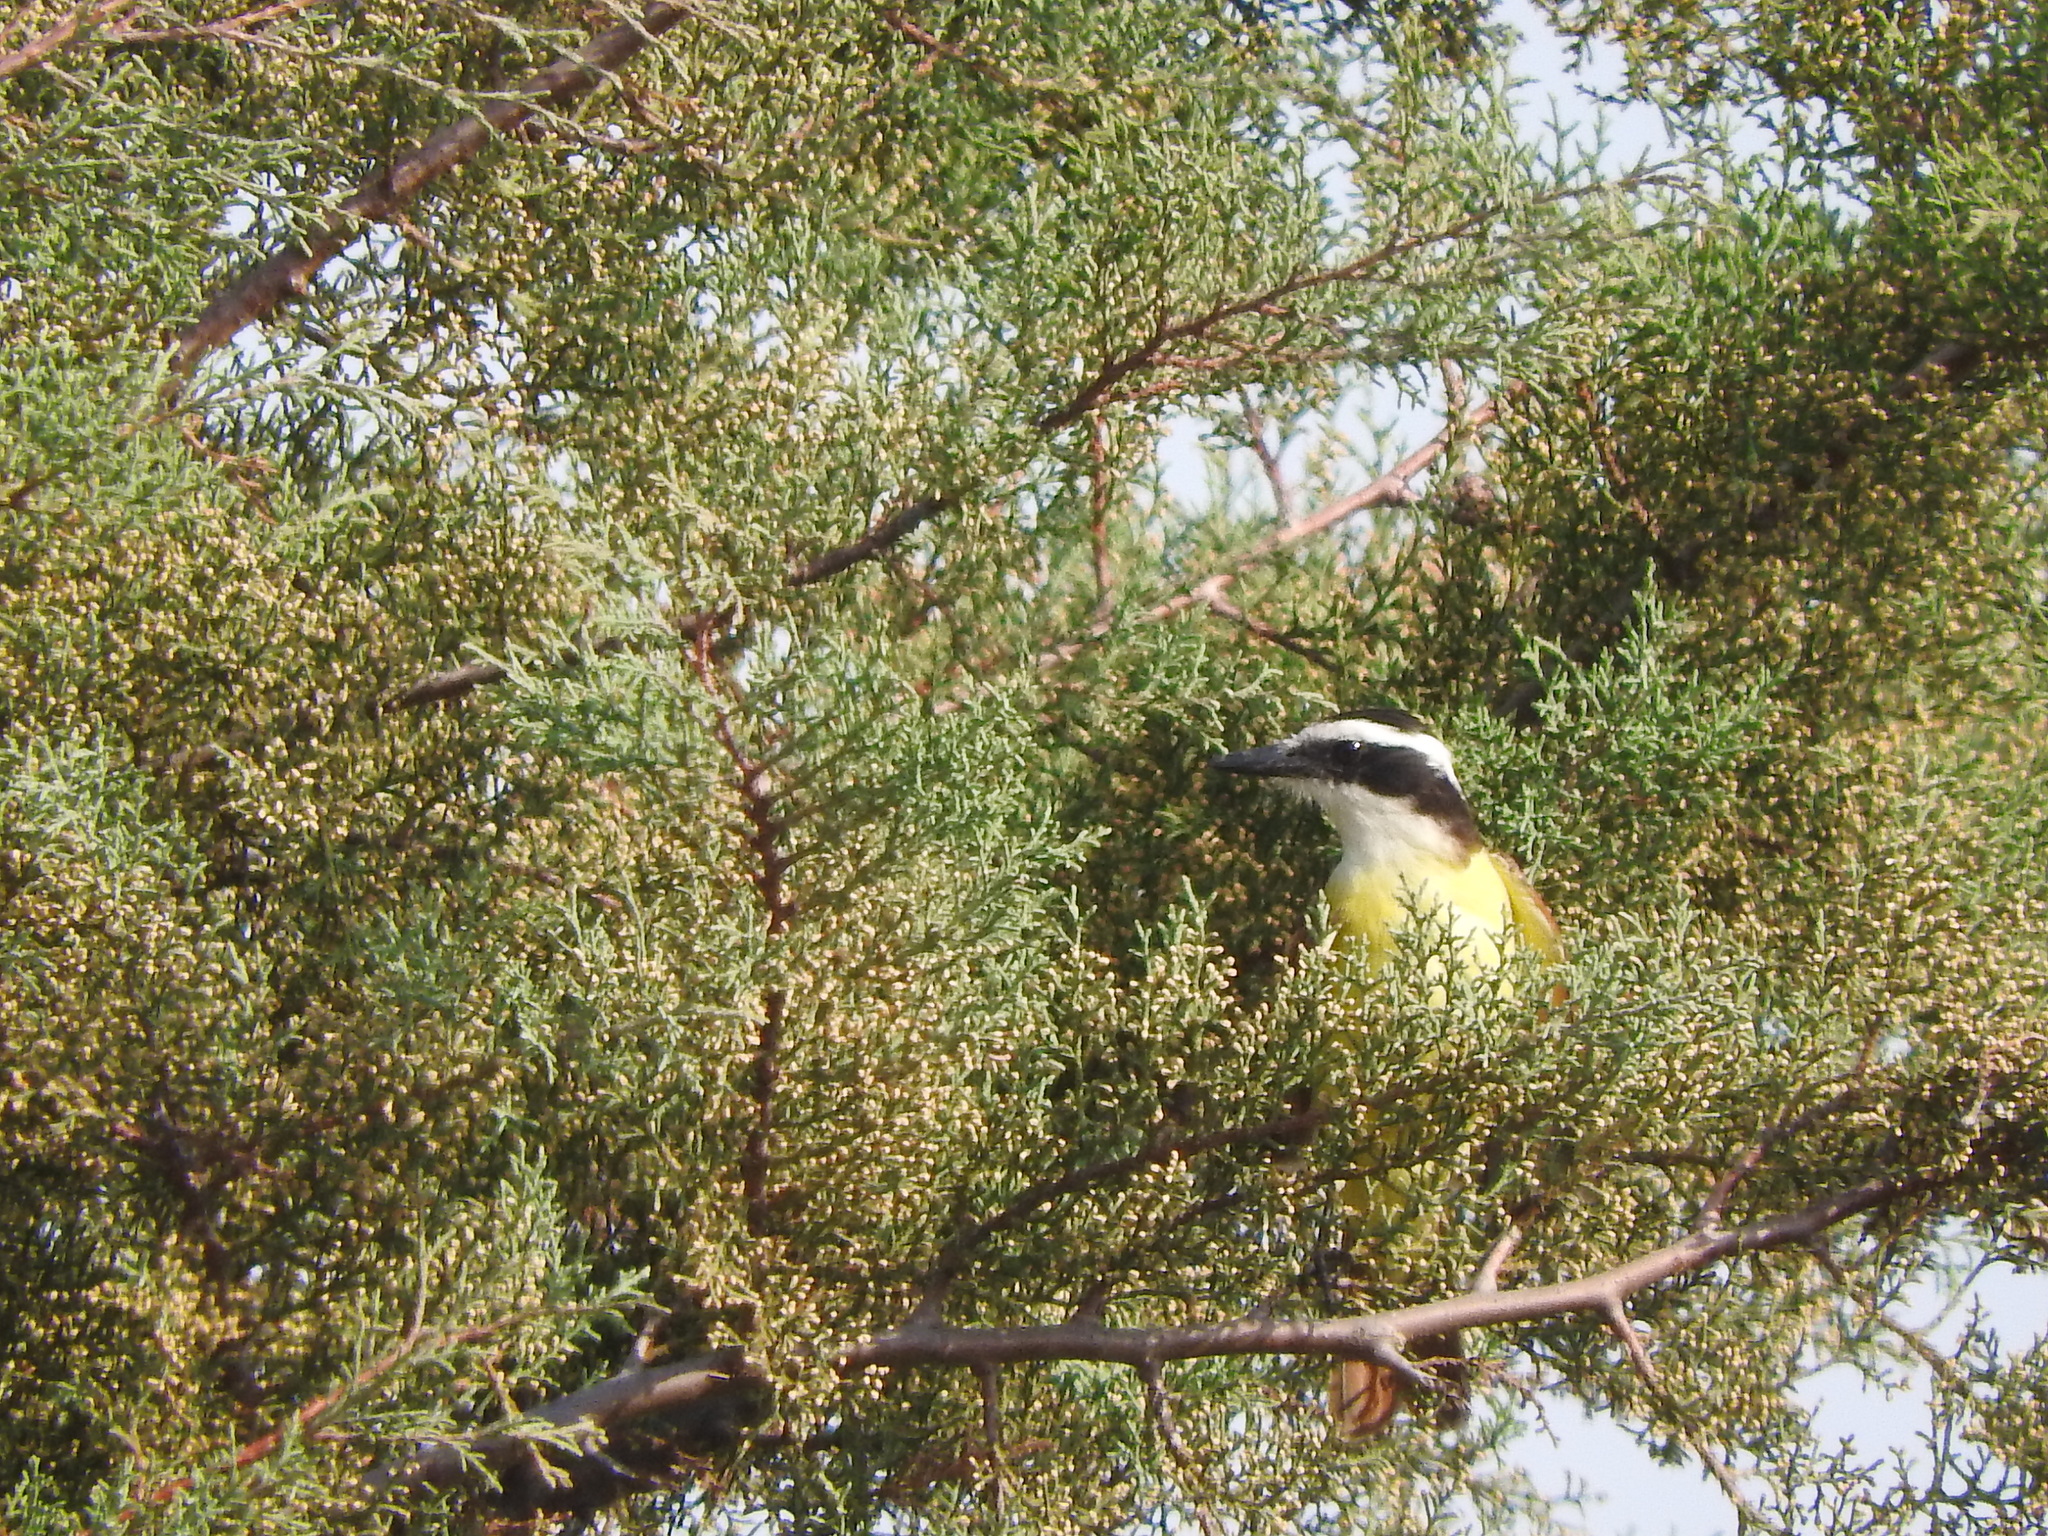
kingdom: Animalia
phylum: Chordata
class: Aves
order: Passeriformes
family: Tyrannidae
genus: Pitangus
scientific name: Pitangus sulphuratus
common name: Great kiskadee
